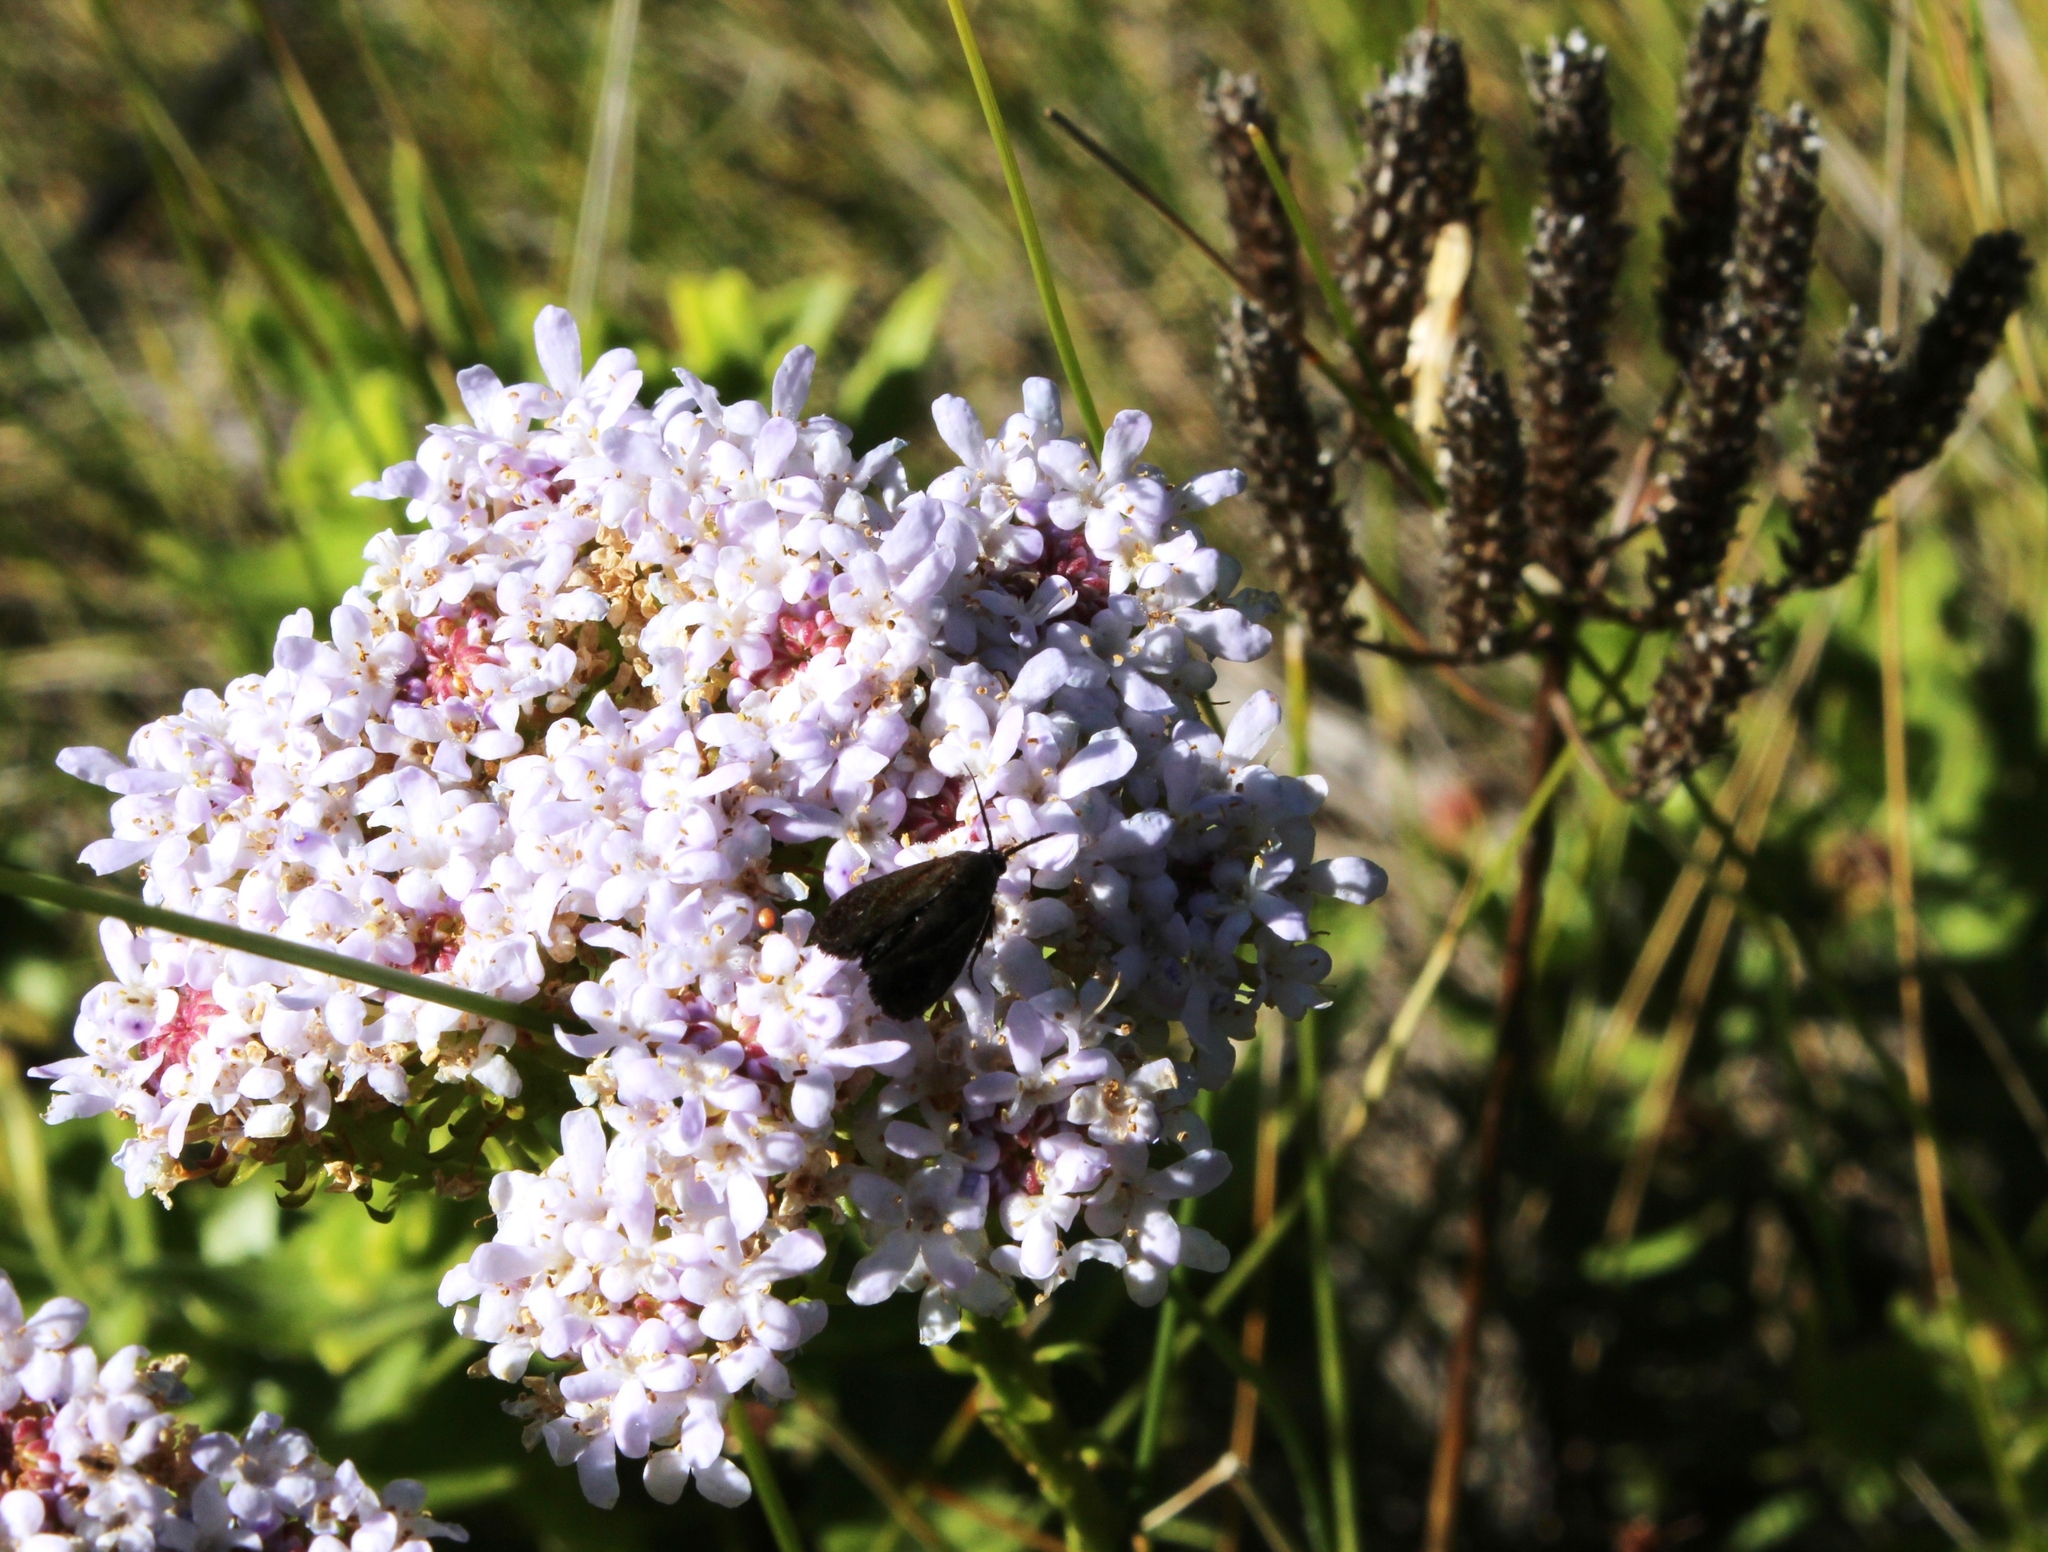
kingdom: Plantae
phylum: Tracheophyta
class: Magnoliopsida
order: Lamiales
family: Scrophulariaceae
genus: Pseudoselago
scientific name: Pseudoselago spuria
